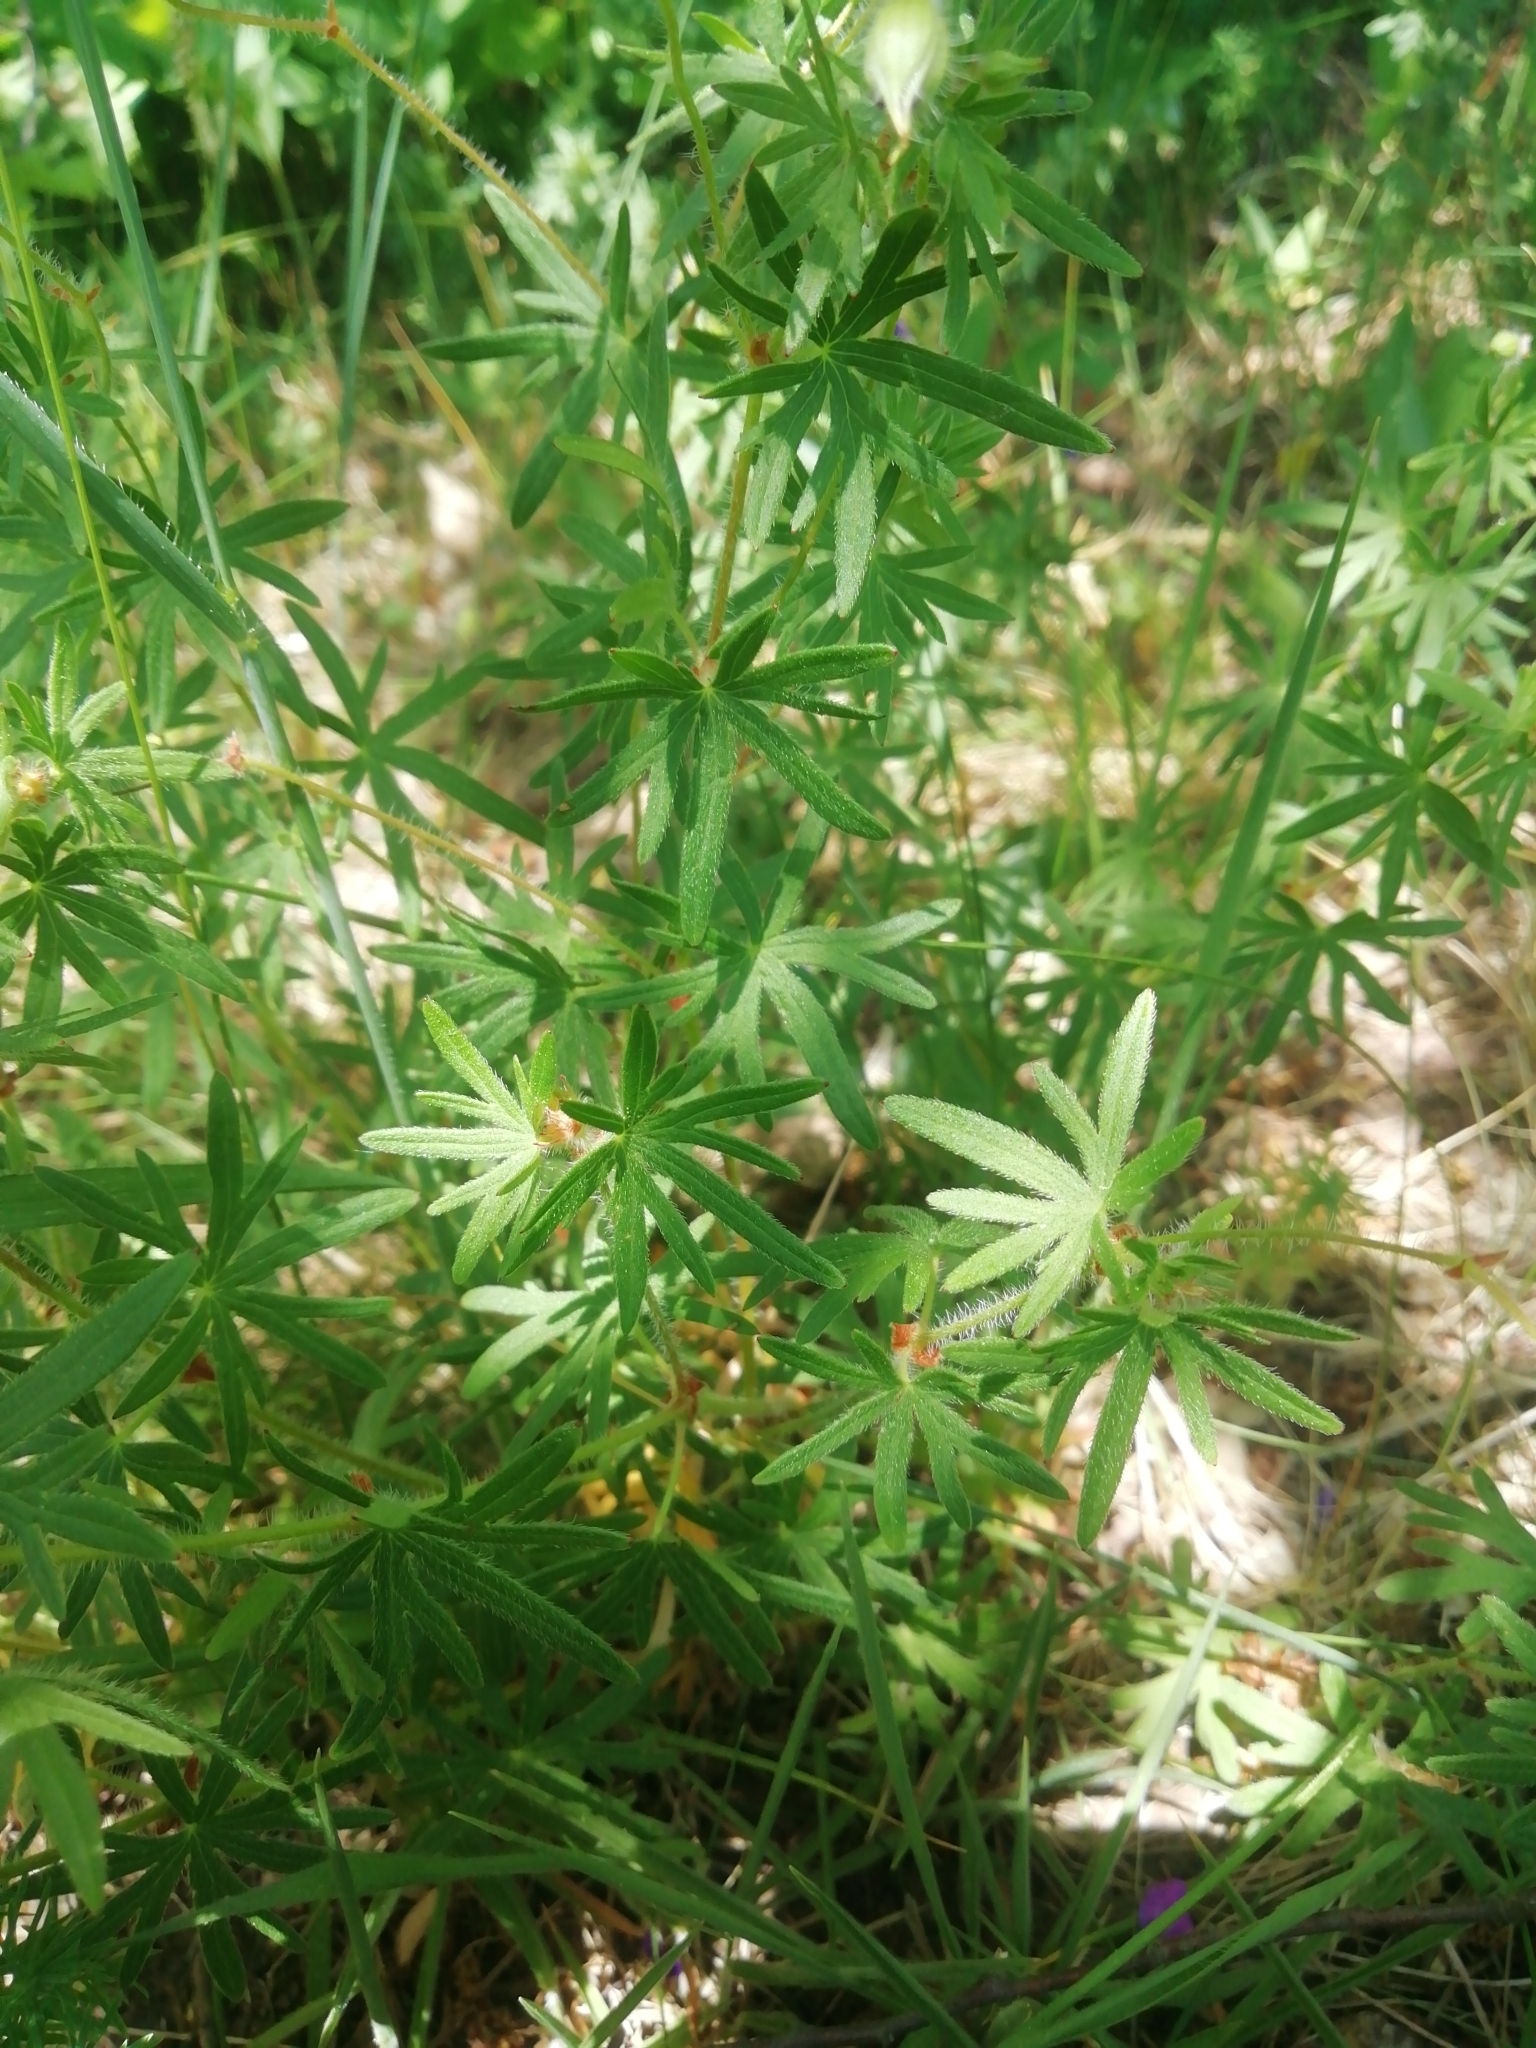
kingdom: Plantae
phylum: Tracheophyta
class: Magnoliopsida
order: Geraniales
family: Geraniaceae
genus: Geranium
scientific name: Geranium sanguineum
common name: Bloody crane's-bill
